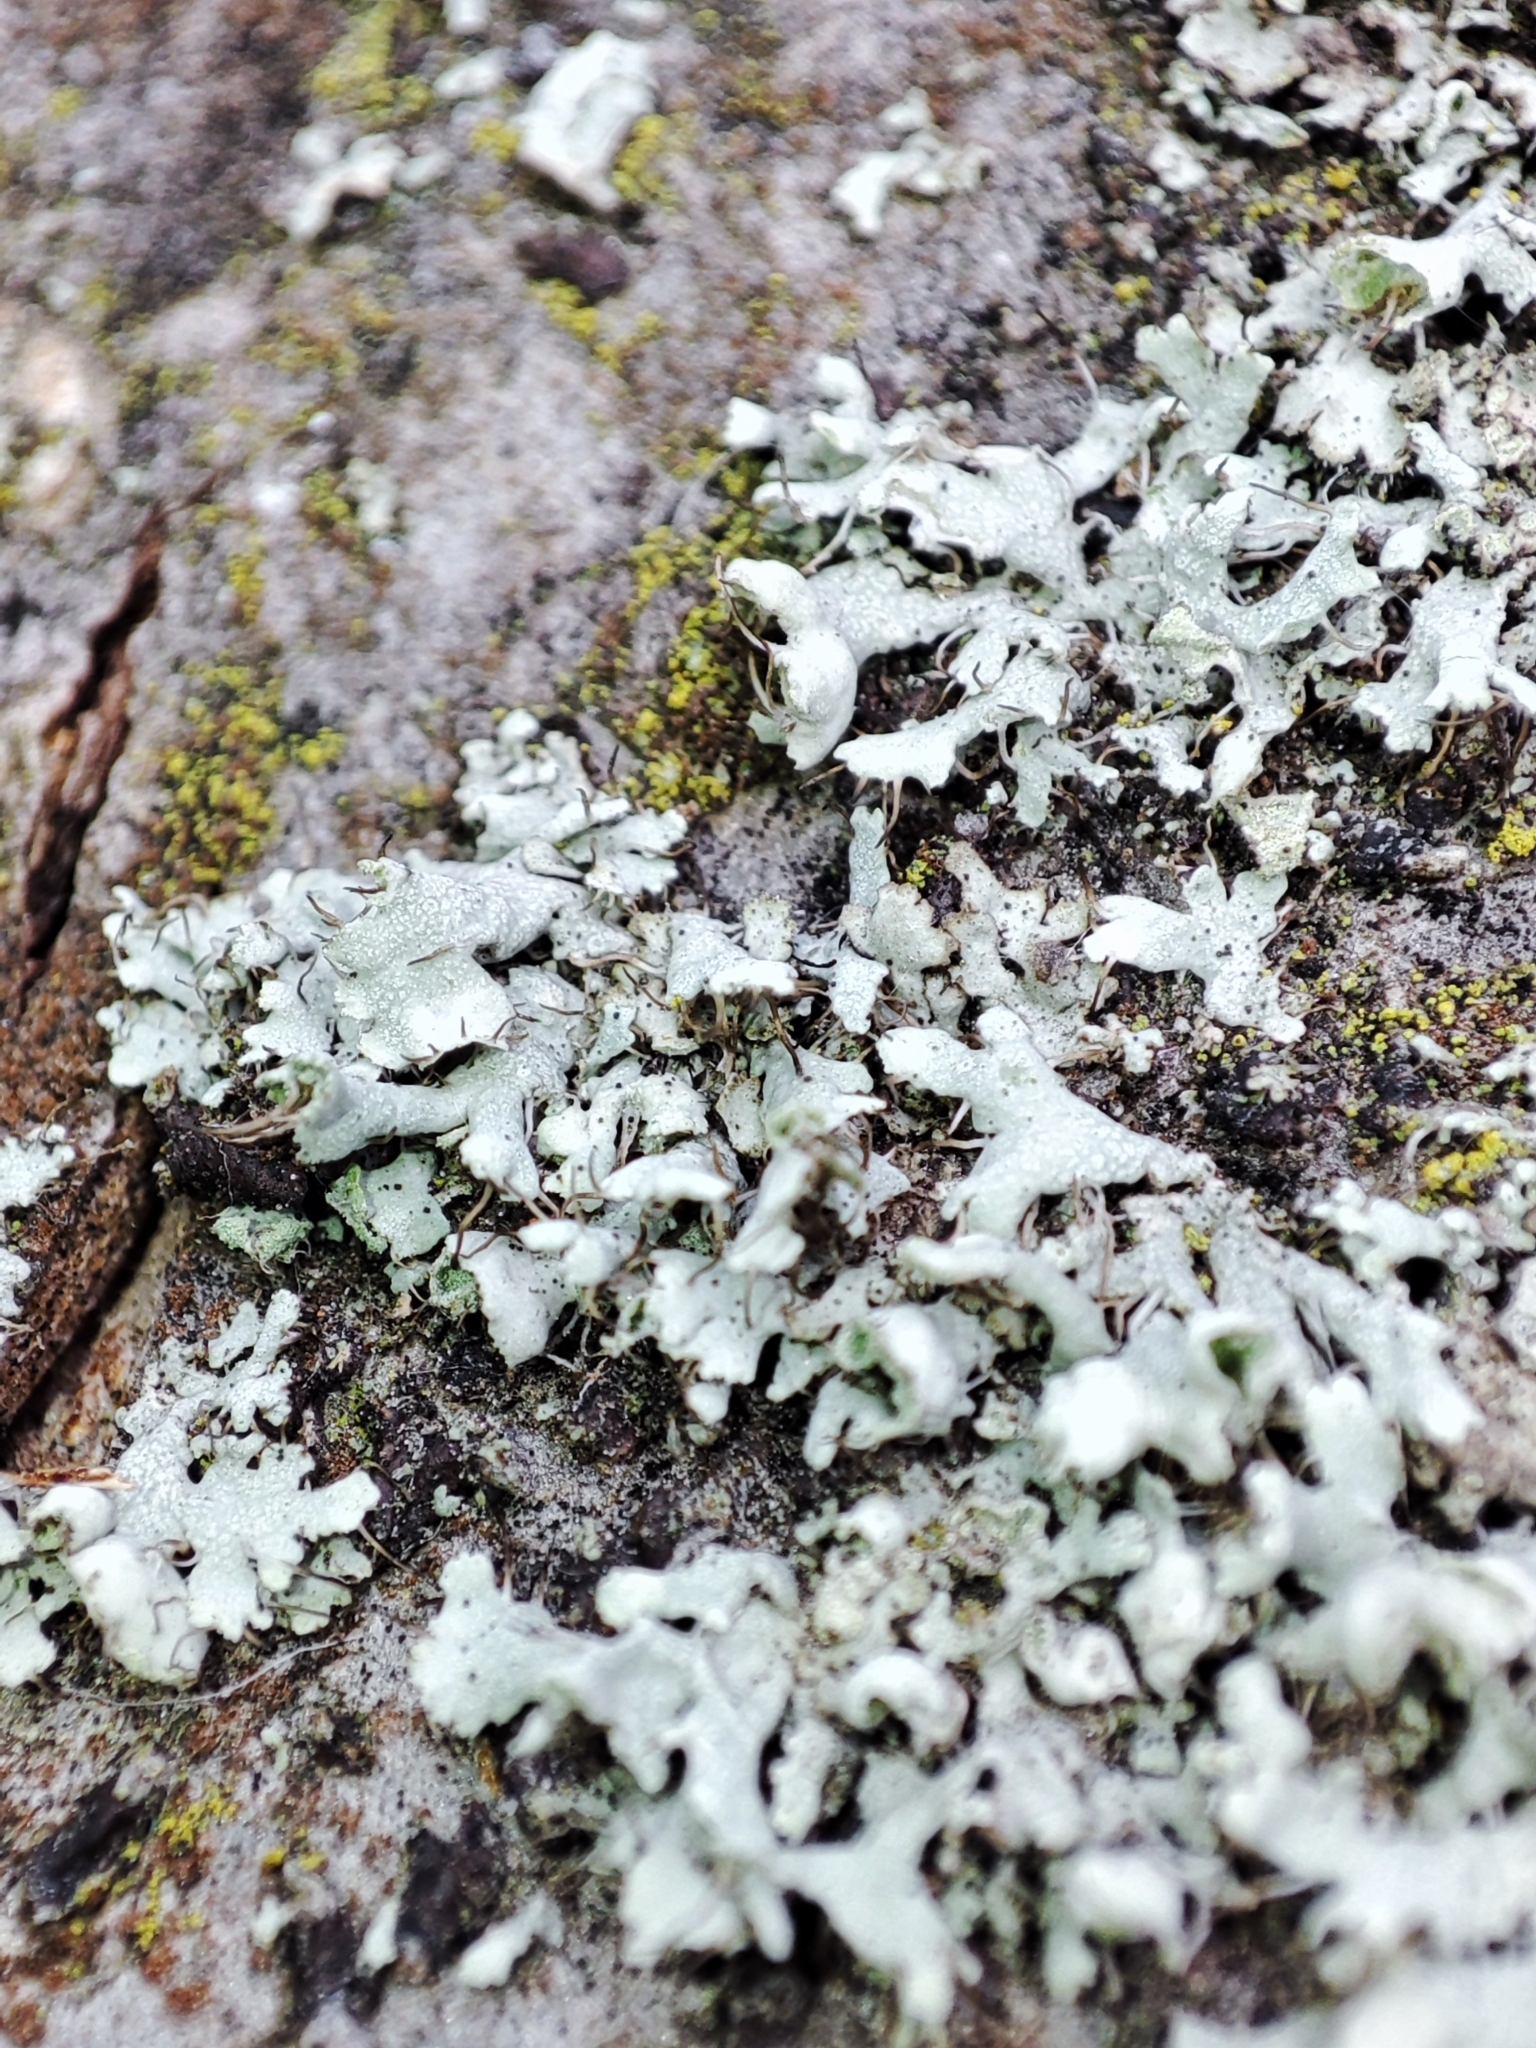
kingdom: Fungi
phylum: Ascomycota
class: Lecanoromycetes
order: Caliciales
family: Physciaceae
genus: Physcia
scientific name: Physcia adscendens
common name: Hooded rosette lichen
